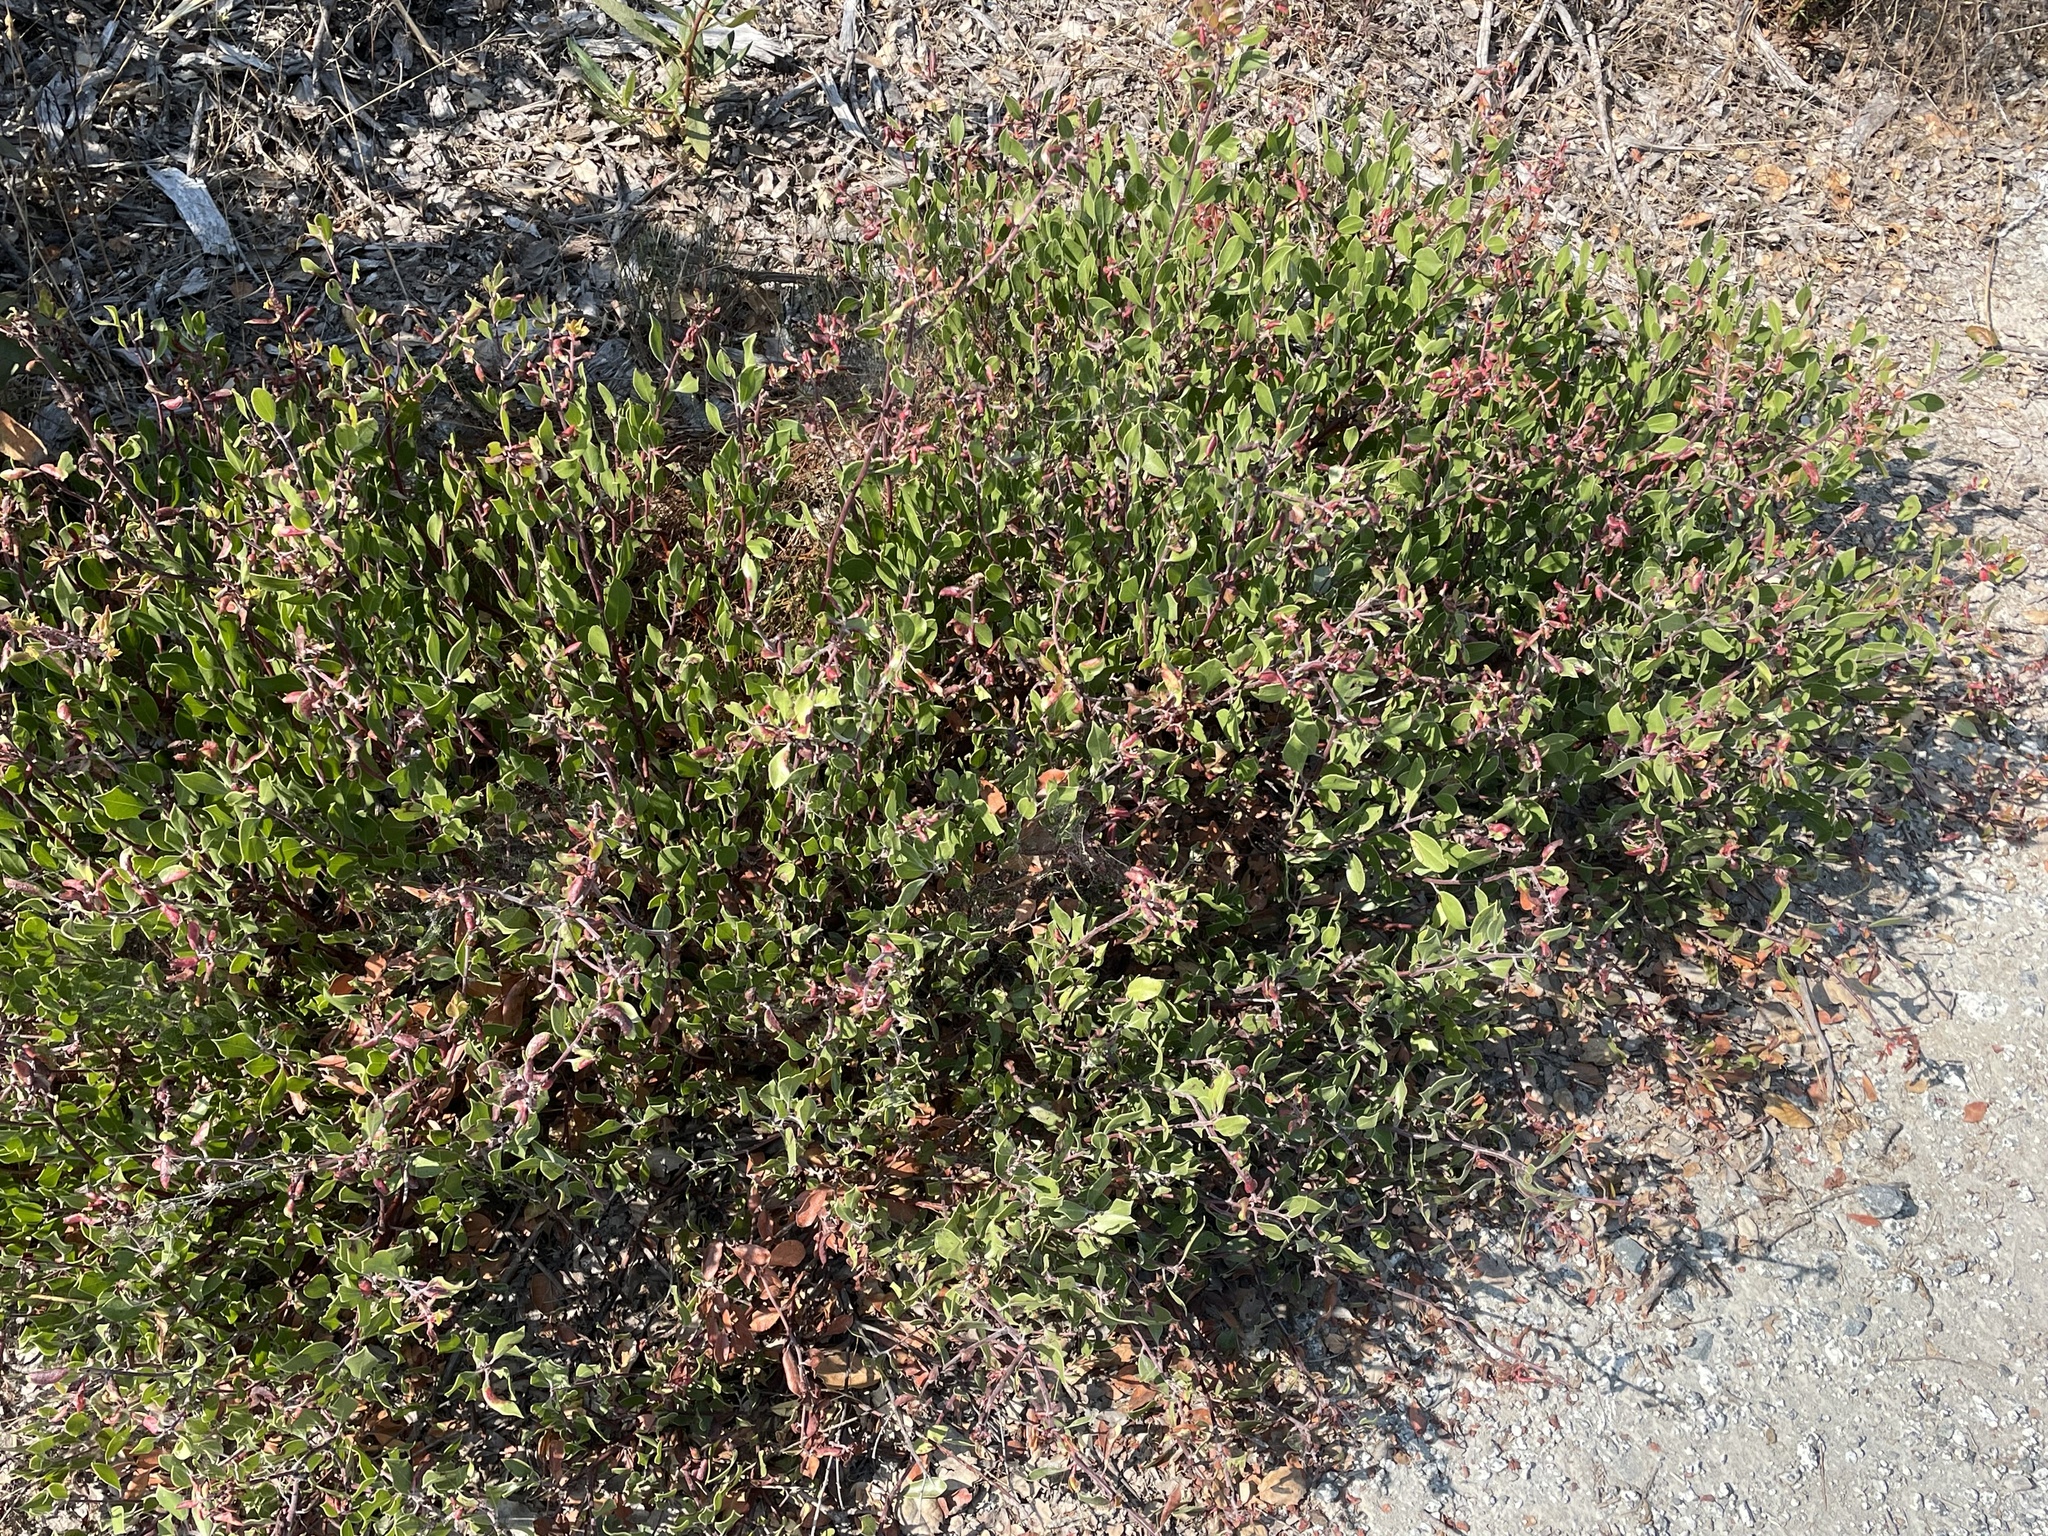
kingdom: Plantae
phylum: Tracheophyta
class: Magnoliopsida
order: Ericales
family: Ericaceae
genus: Arctostaphylos
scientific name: Arctostaphylos hookeri
